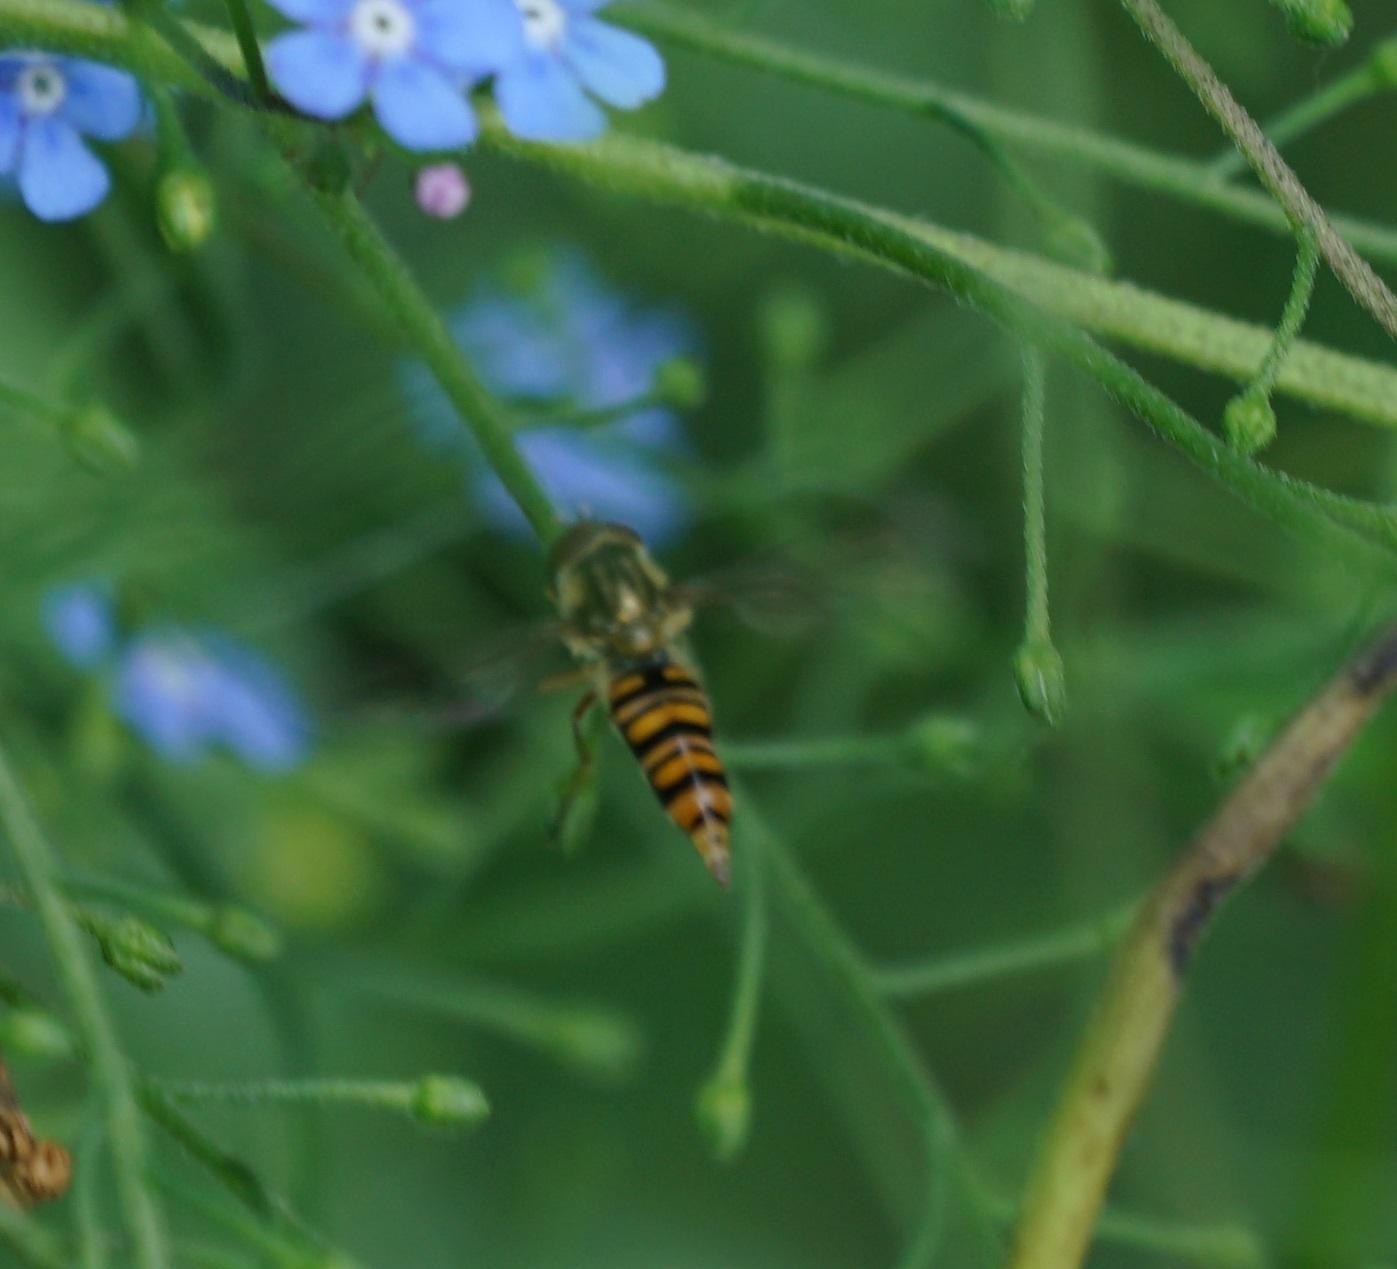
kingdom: Animalia
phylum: Arthropoda
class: Insecta
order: Diptera
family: Syrphidae
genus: Episyrphus
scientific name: Episyrphus balteatus
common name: Marmalade hoverfly
